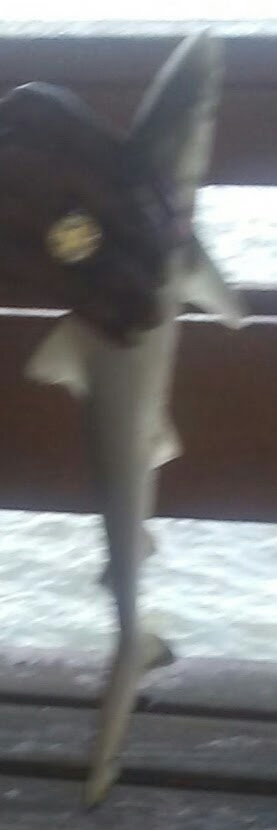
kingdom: Animalia
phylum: Chordata
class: Elasmobranchii
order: Carcharhiniformes
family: Carcharhinidae
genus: Rhizoprionodon
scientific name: Rhizoprionodon terraenovae
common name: Atlantic sharpnose shark
